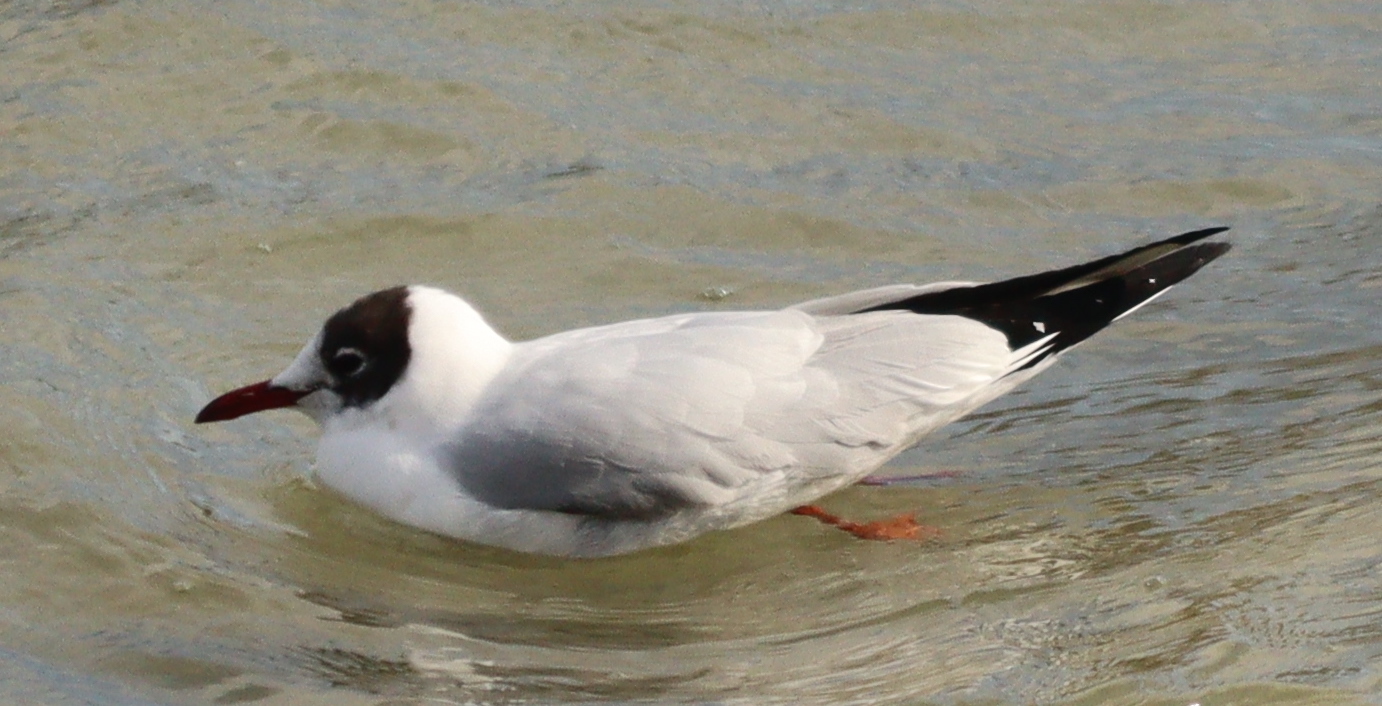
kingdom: Animalia
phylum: Chordata
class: Aves
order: Charadriiformes
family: Laridae
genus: Chroicocephalus
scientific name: Chroicocephalus ridibundus
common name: Black-headed gull
